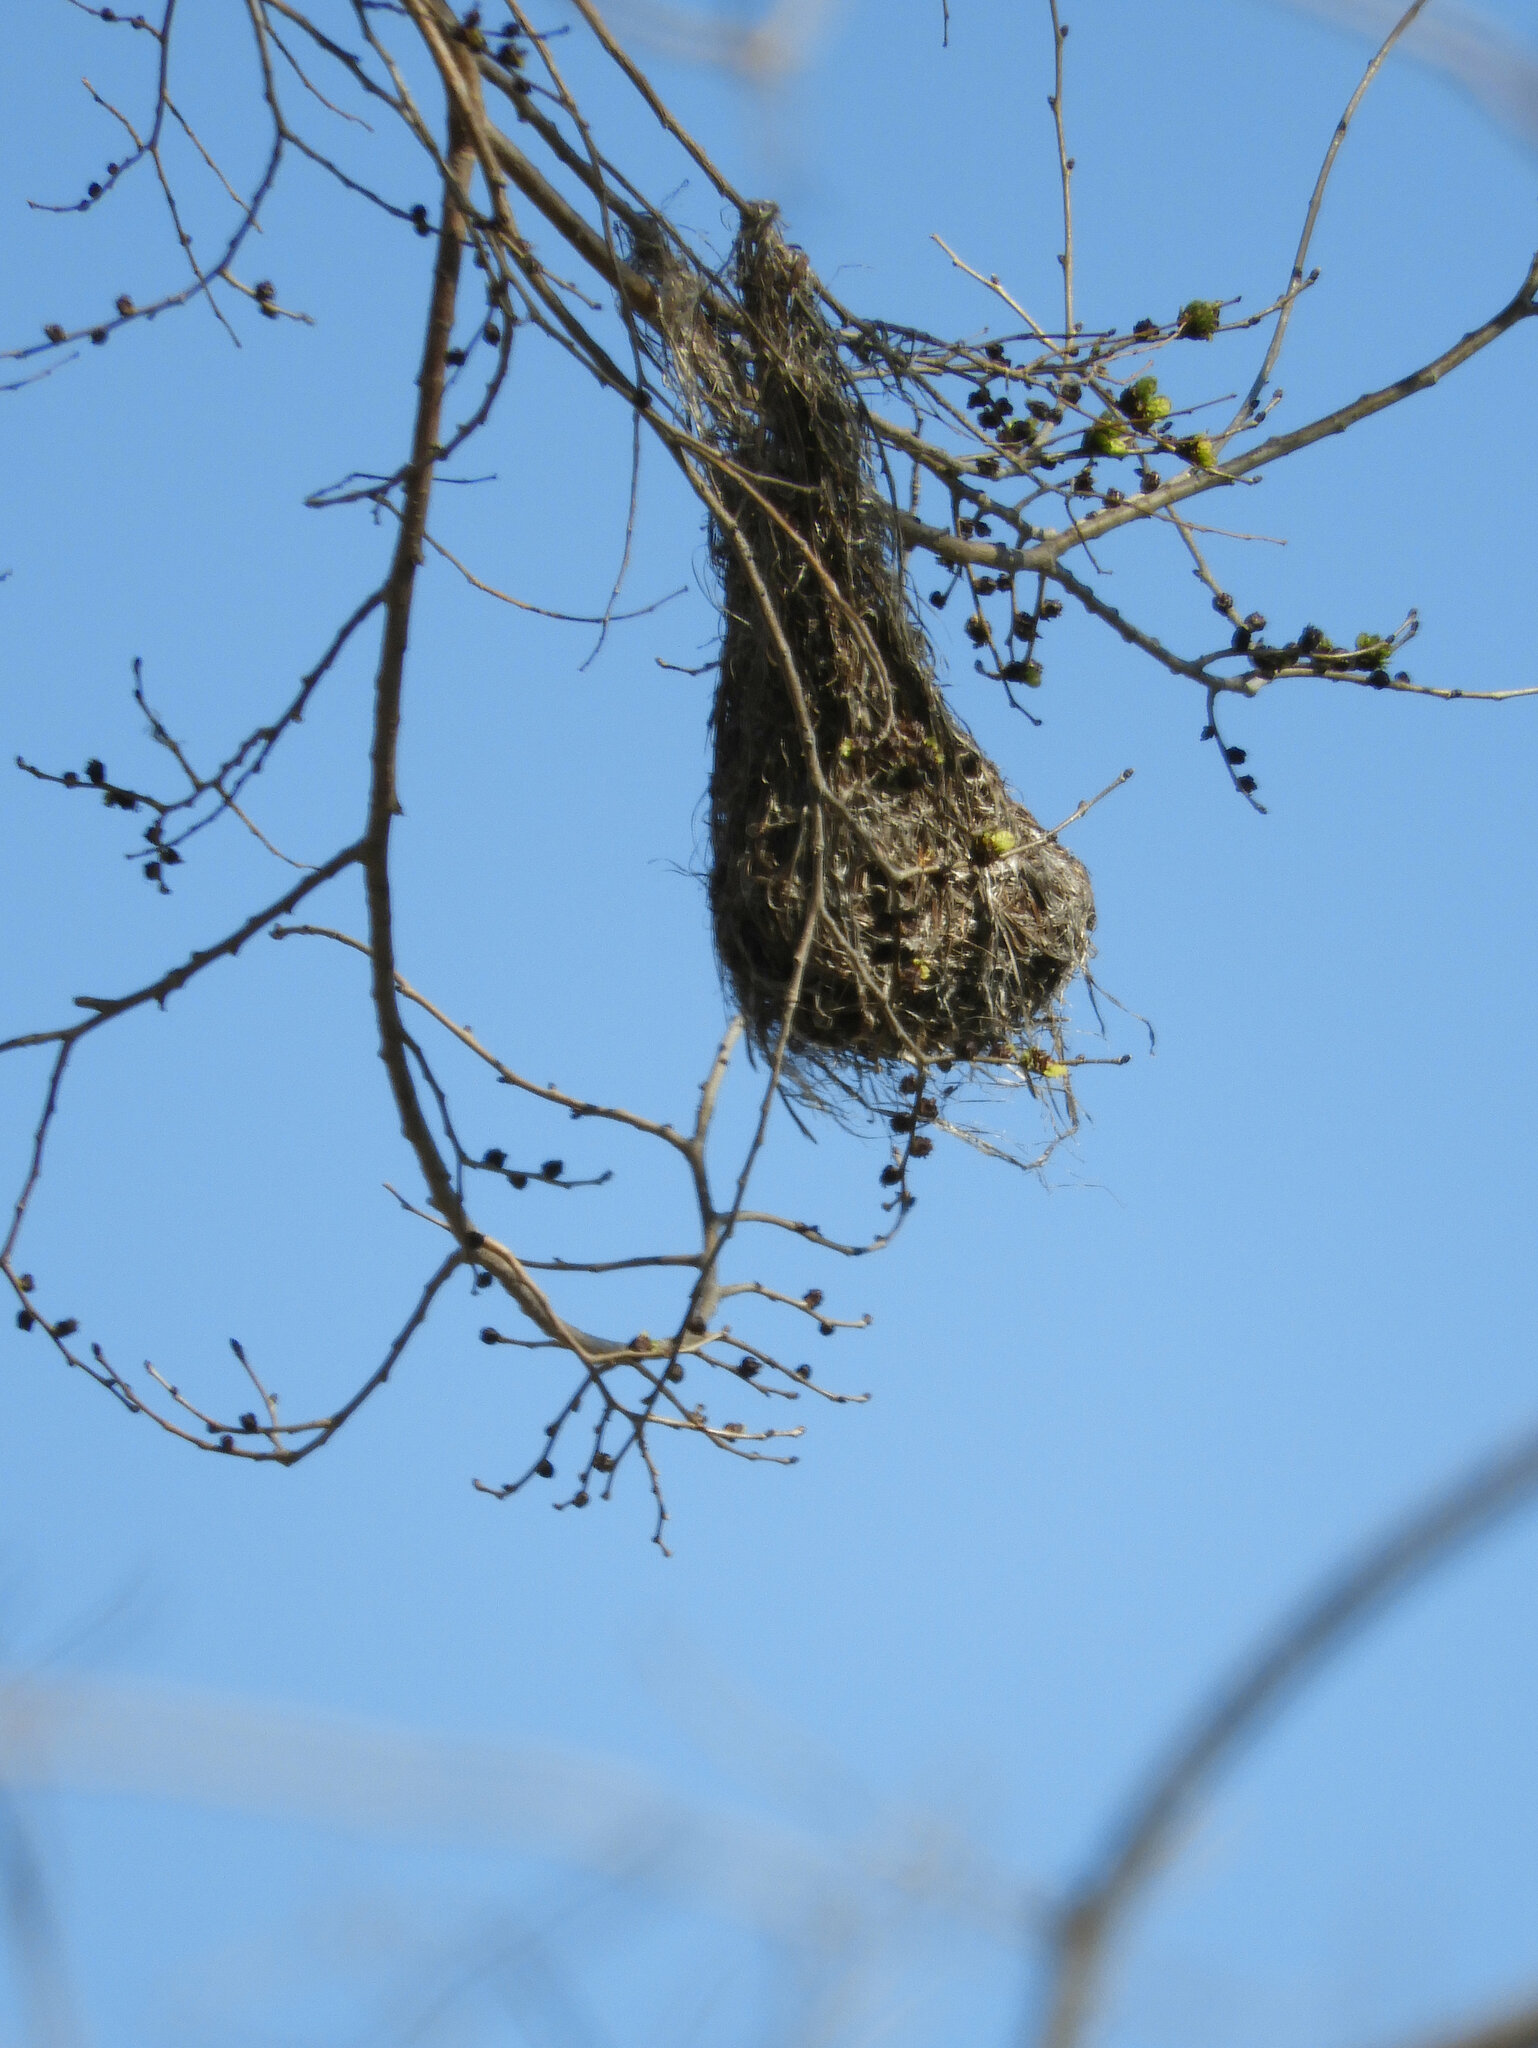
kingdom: Animalia
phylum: Chordata
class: Aves
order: Passeriformes
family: Icteridae
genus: Icterus
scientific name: Icterus bullockii
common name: Bullock's oriole
